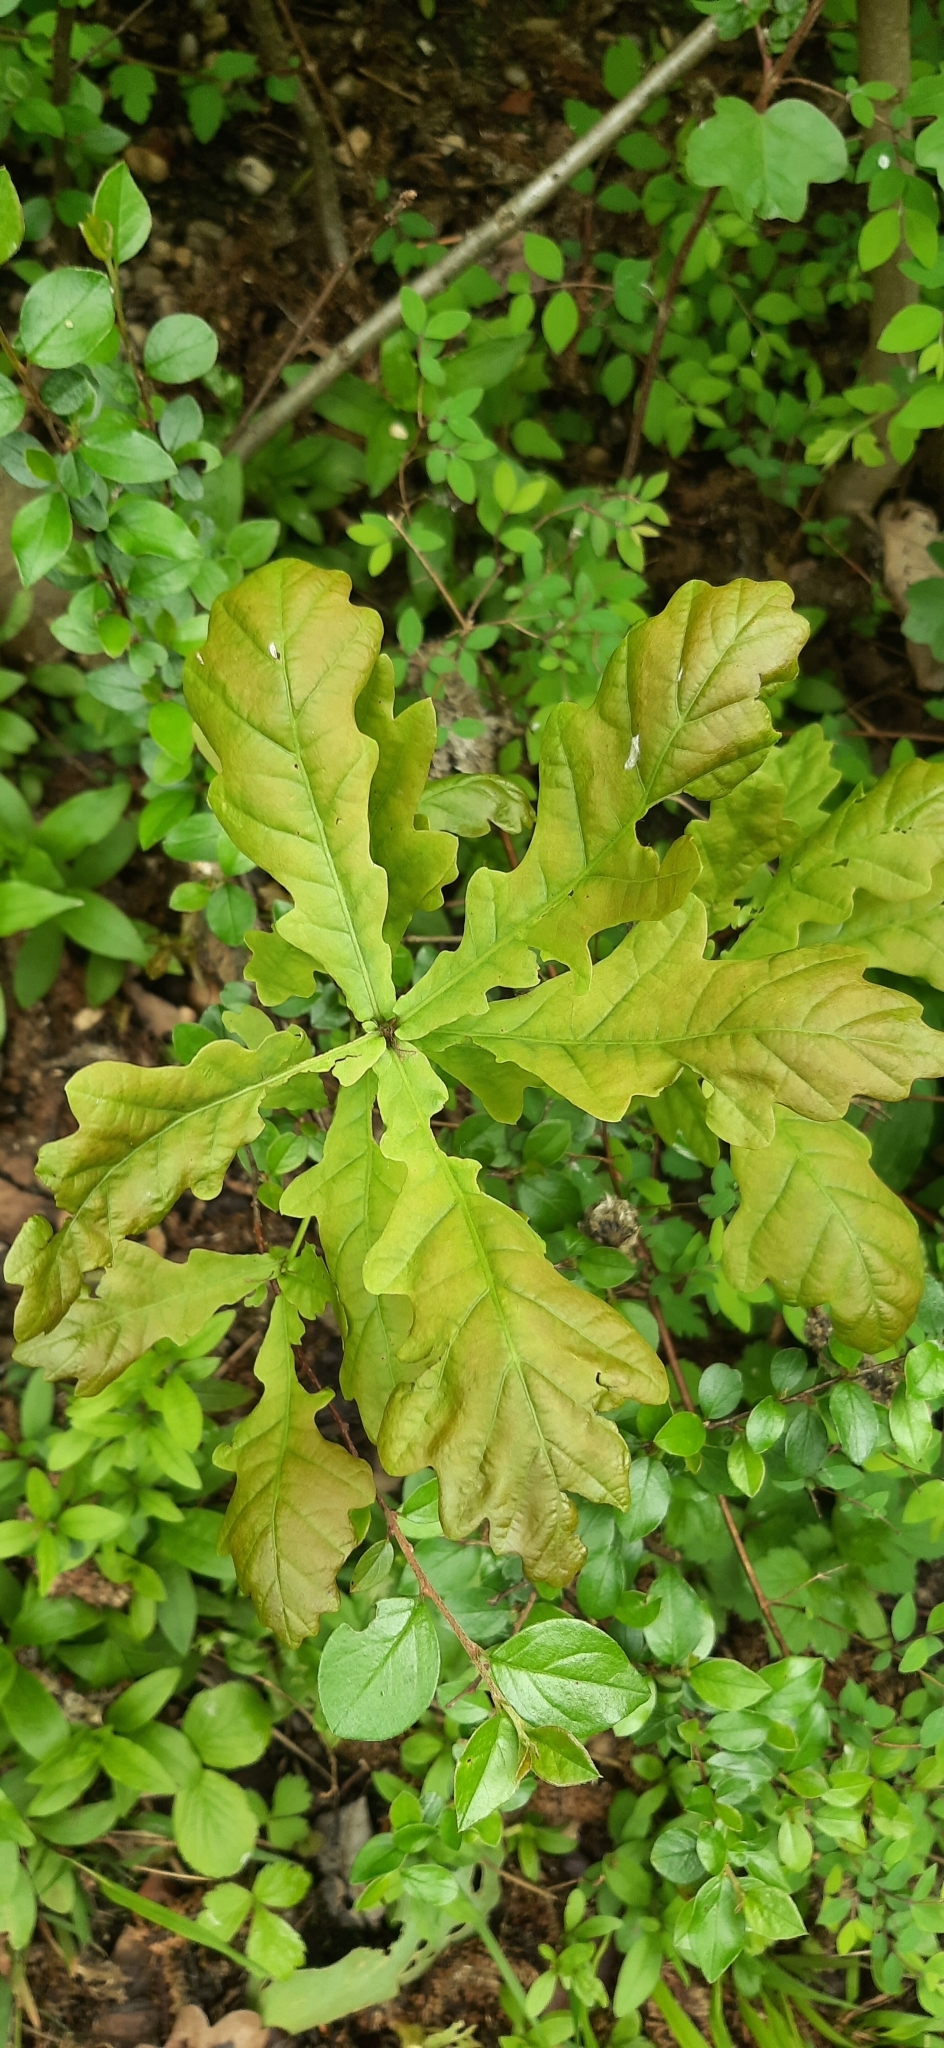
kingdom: Plantae
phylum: Tracheophyta
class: Magnoliopsida
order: Fagales
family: Fagaceae
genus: Quercus
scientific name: Quercus robur
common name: Pedunculate oak
